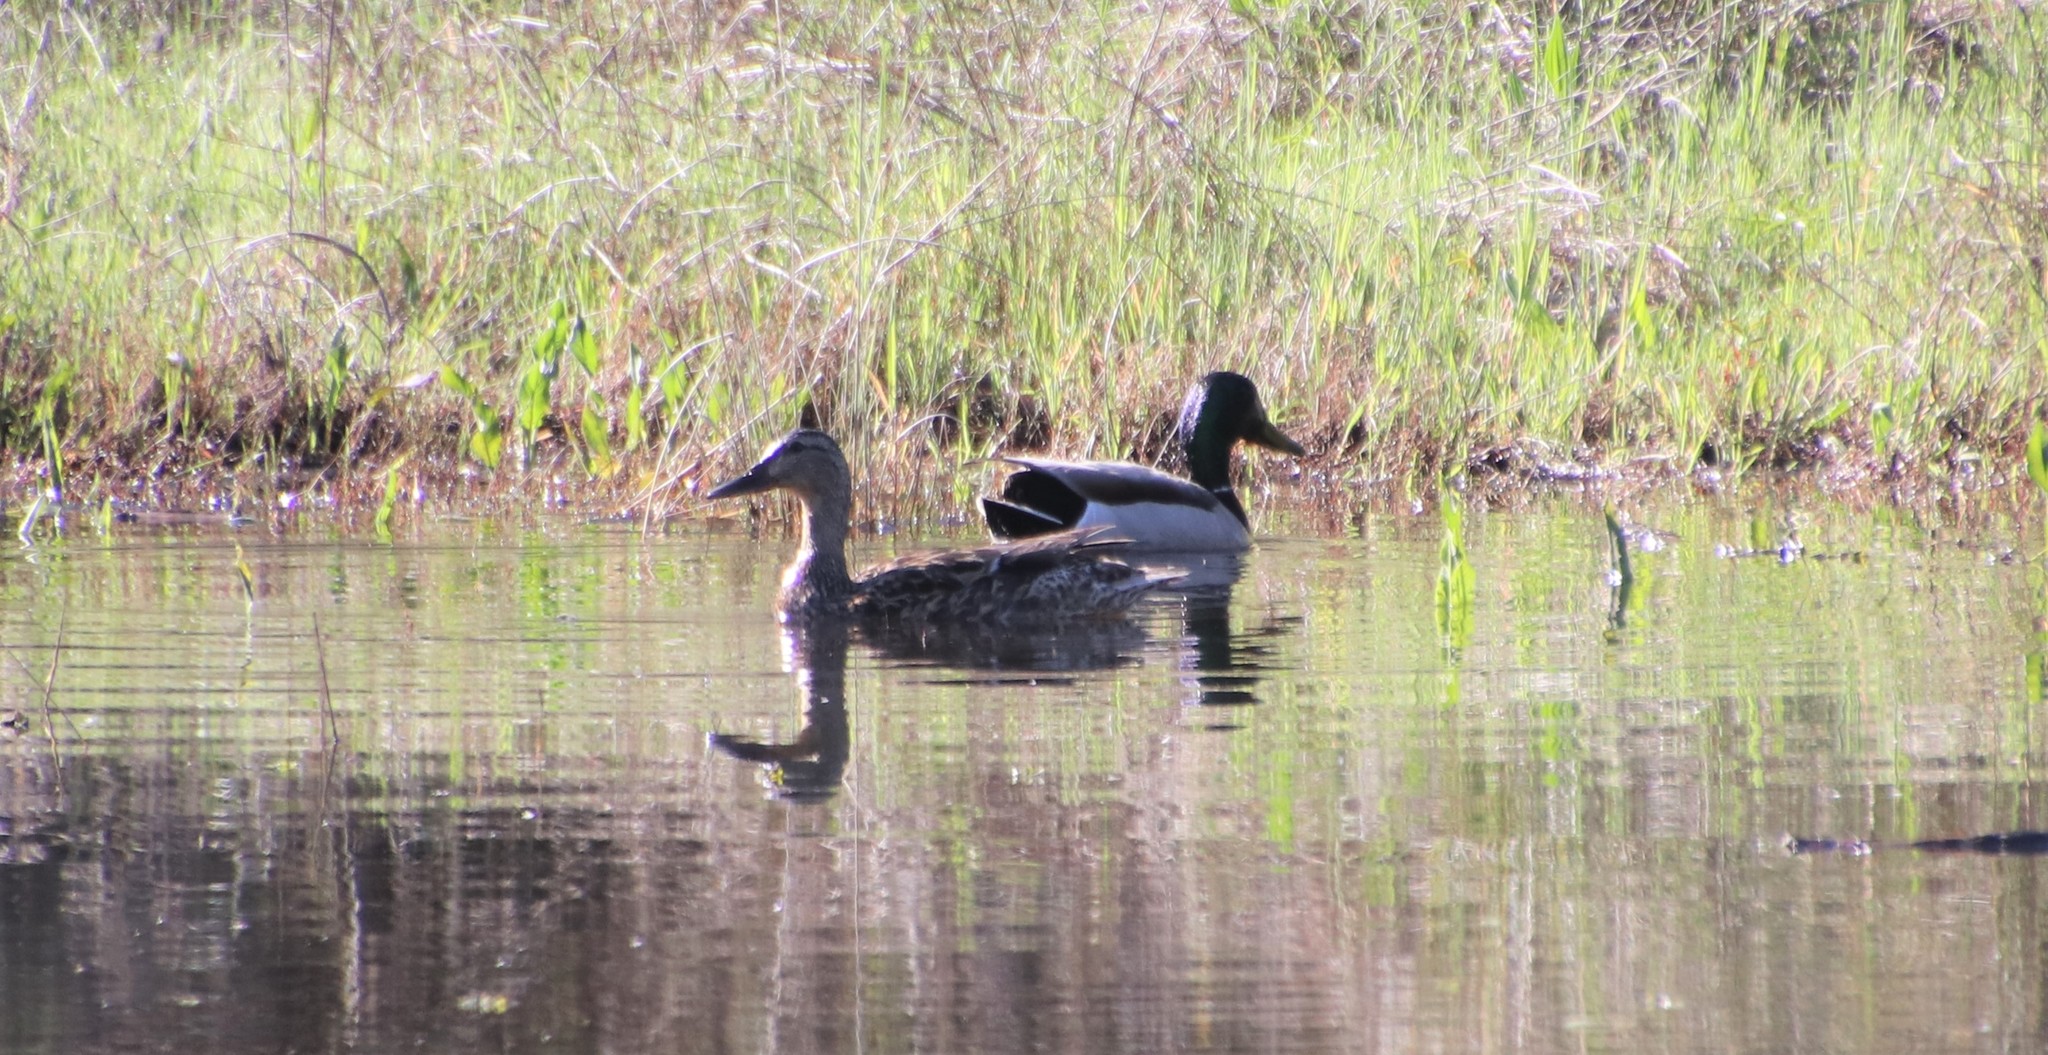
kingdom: Animalia
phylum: Chordata
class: Aves
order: Anseriformes
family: Anatidae
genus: Anas
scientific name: Anas platyrhynchos
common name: Mallard
